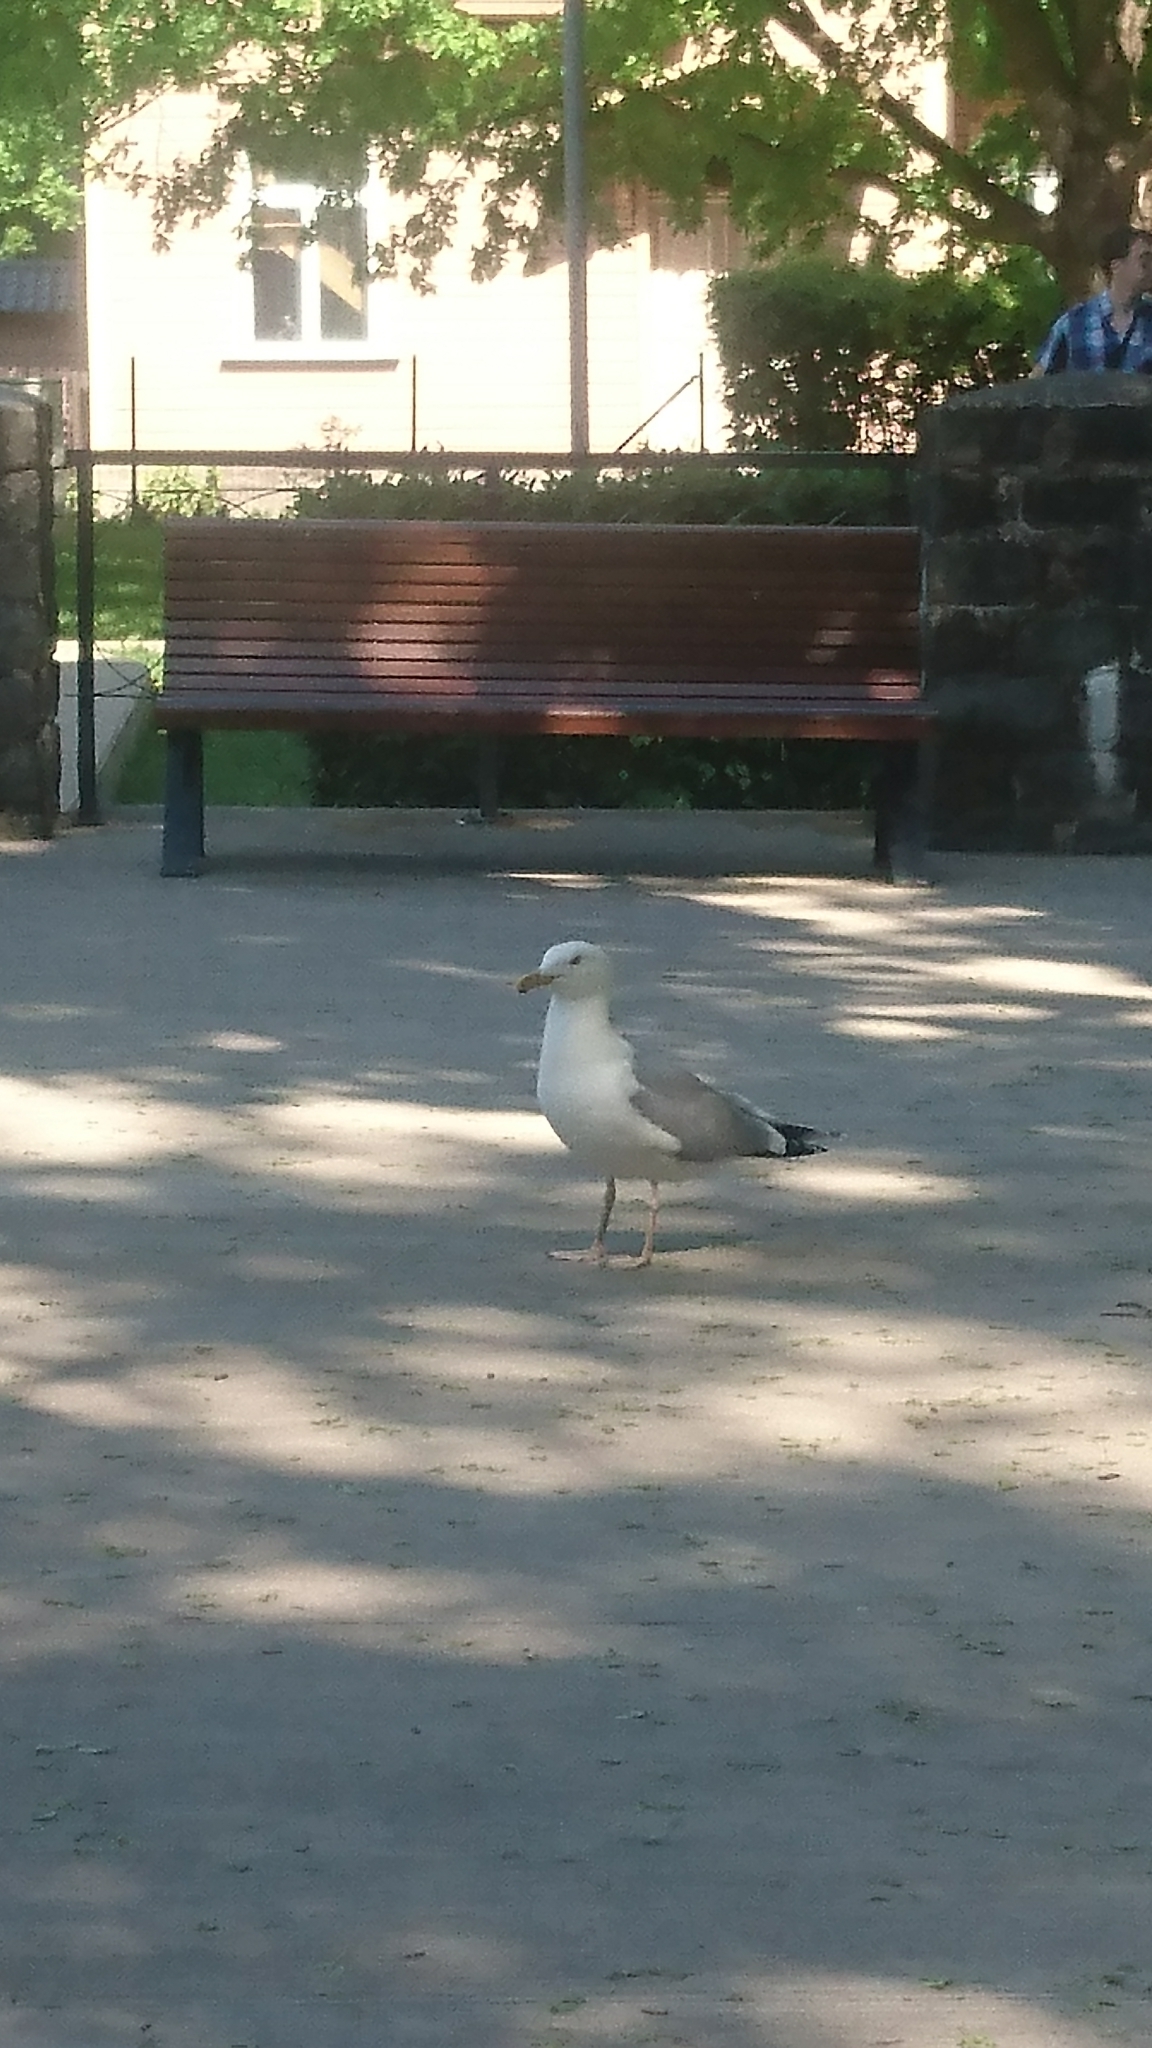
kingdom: Animalia
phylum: Chordata
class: Aves
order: Charadriiformes
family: Laridae
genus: Larus
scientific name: Larus argentatus
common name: Herring gull
